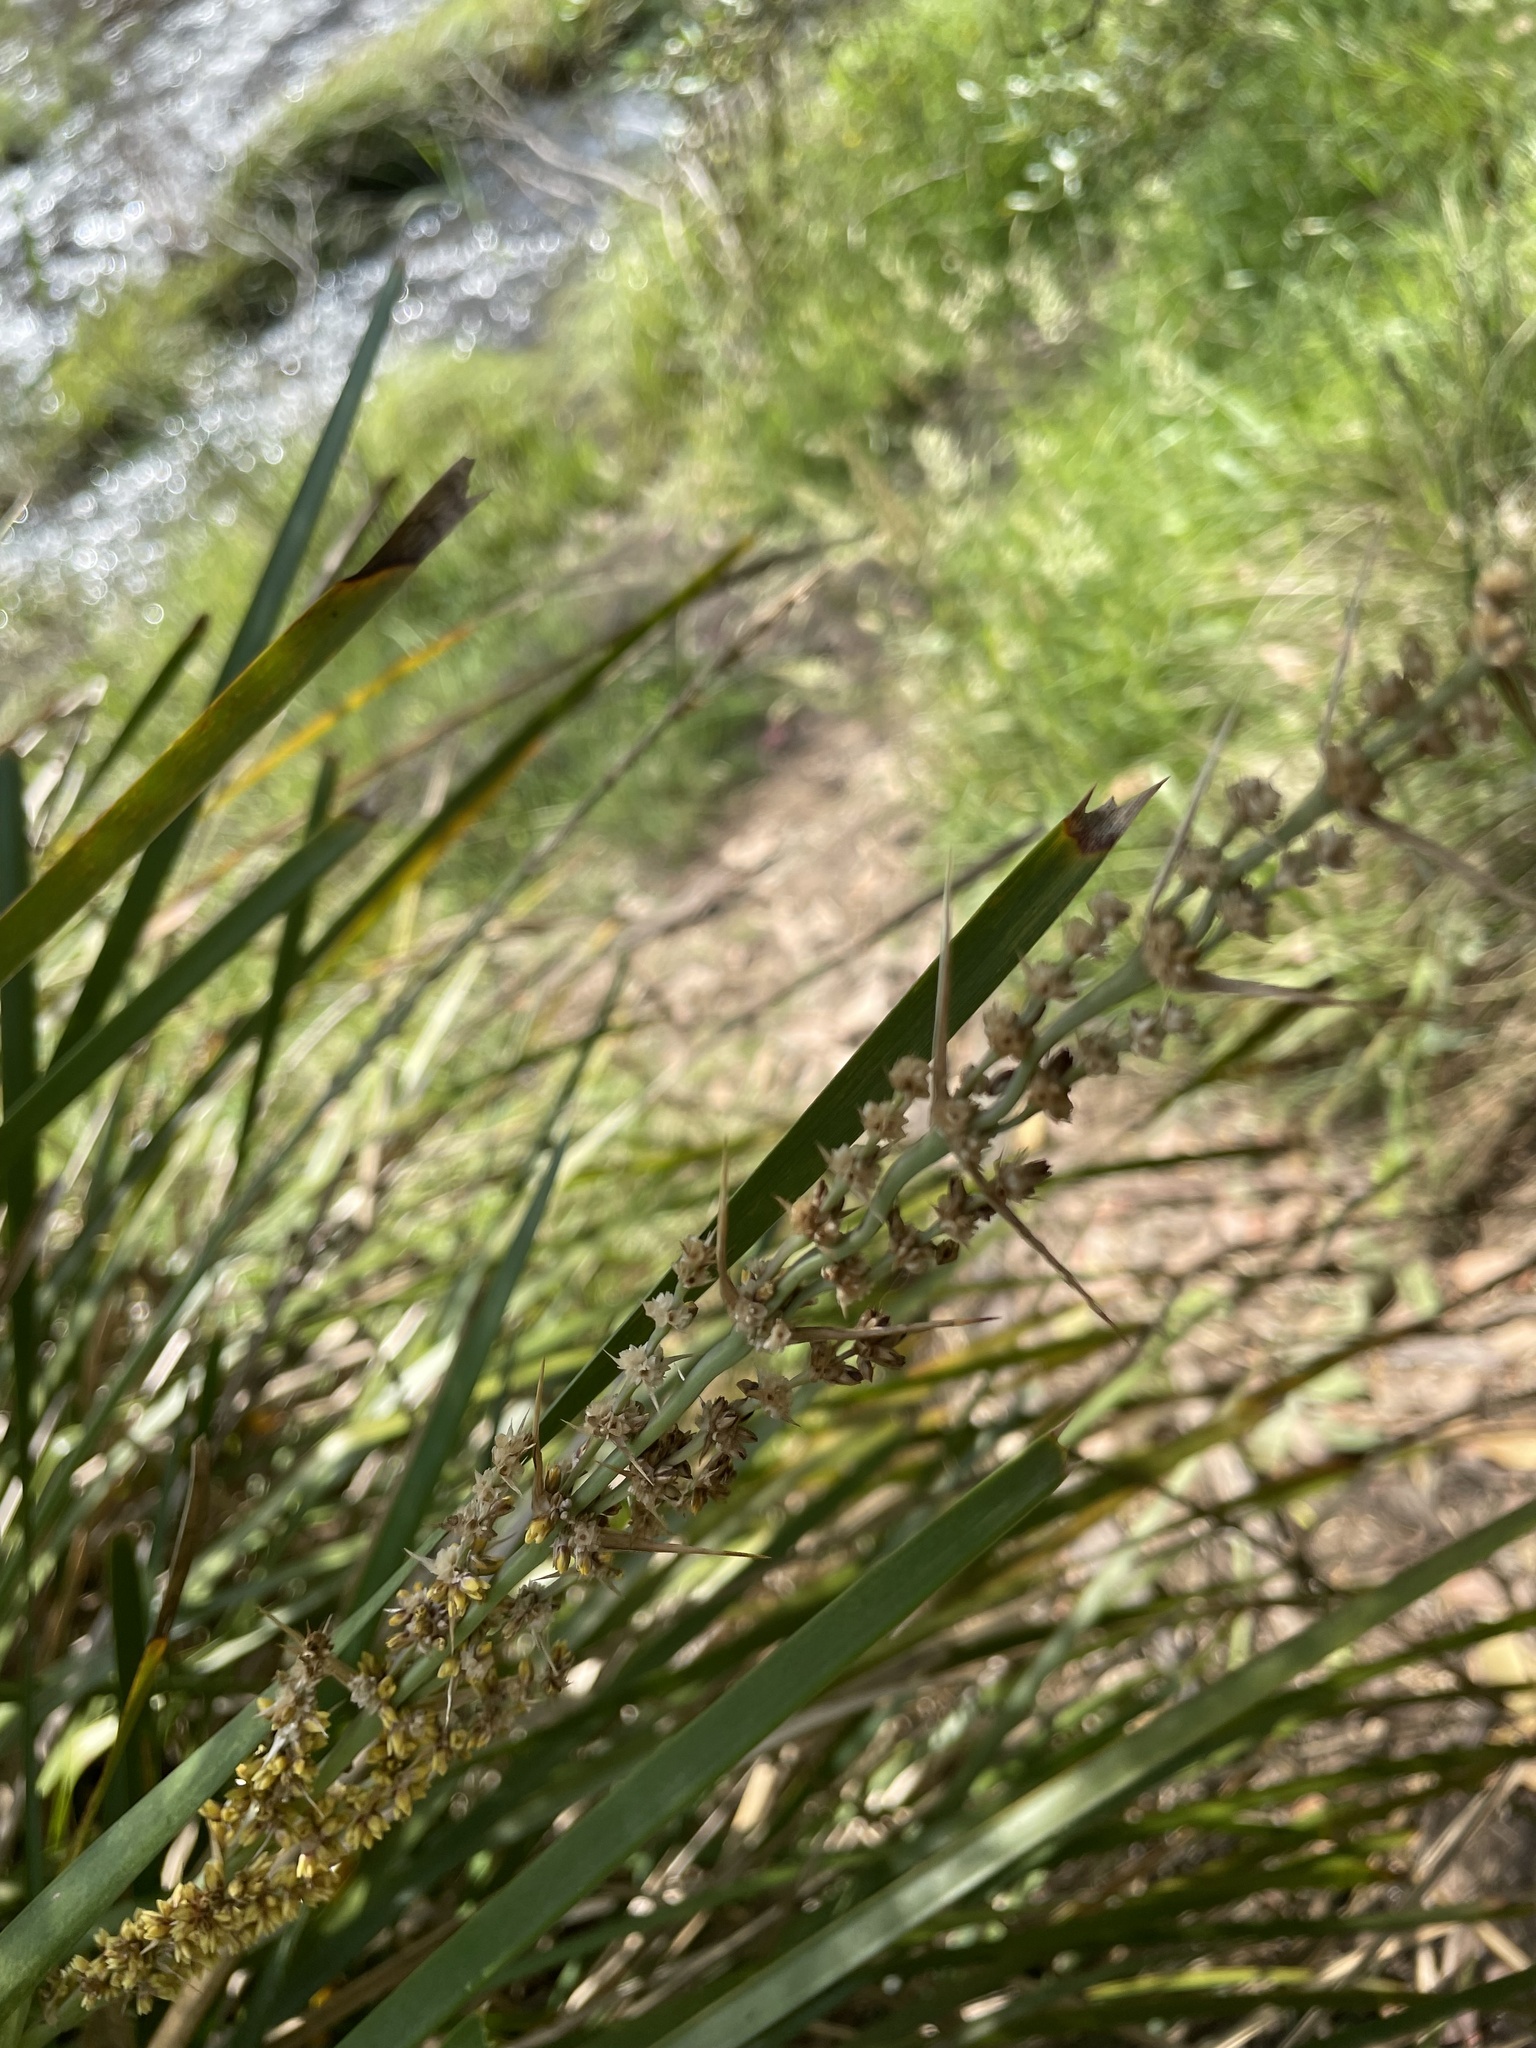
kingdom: Plantae
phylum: Tracheophyta
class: Liliopsida
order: Asparagales
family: Asparagaceae
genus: Lomandra
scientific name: Lomandra longifolia
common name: Longleaf mat-rush
